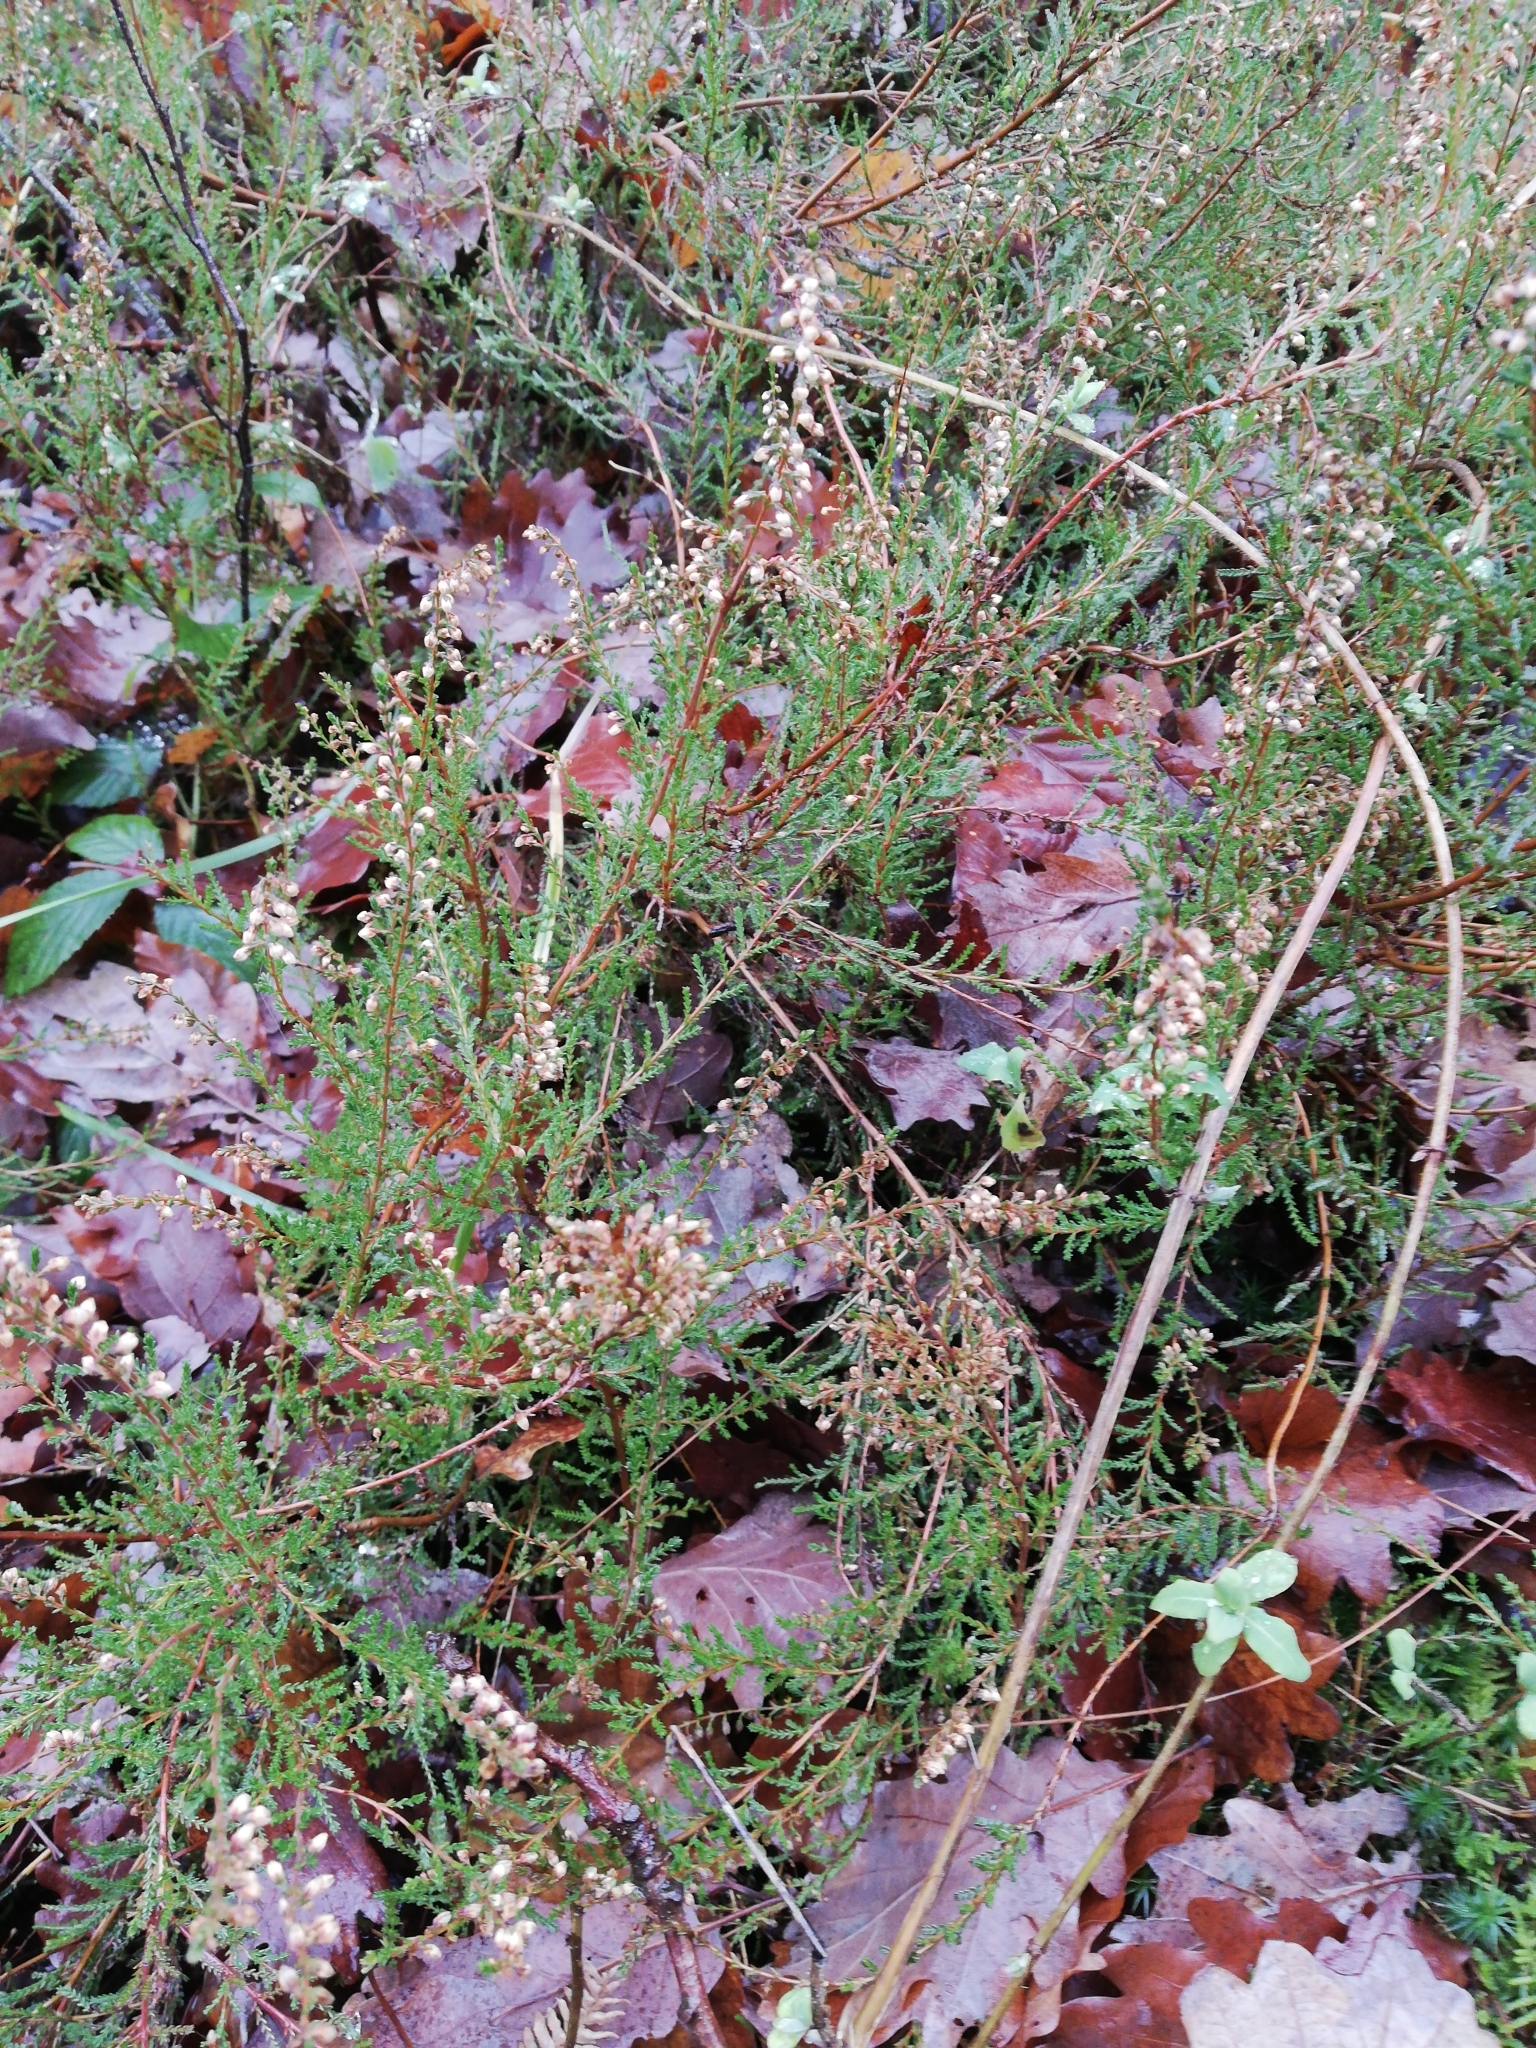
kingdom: Plantae
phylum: Tracheophyta
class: Magnoliopsida
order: Ericales
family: Ericaceae
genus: Calluna
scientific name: Calluna vulgaris
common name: Heather
